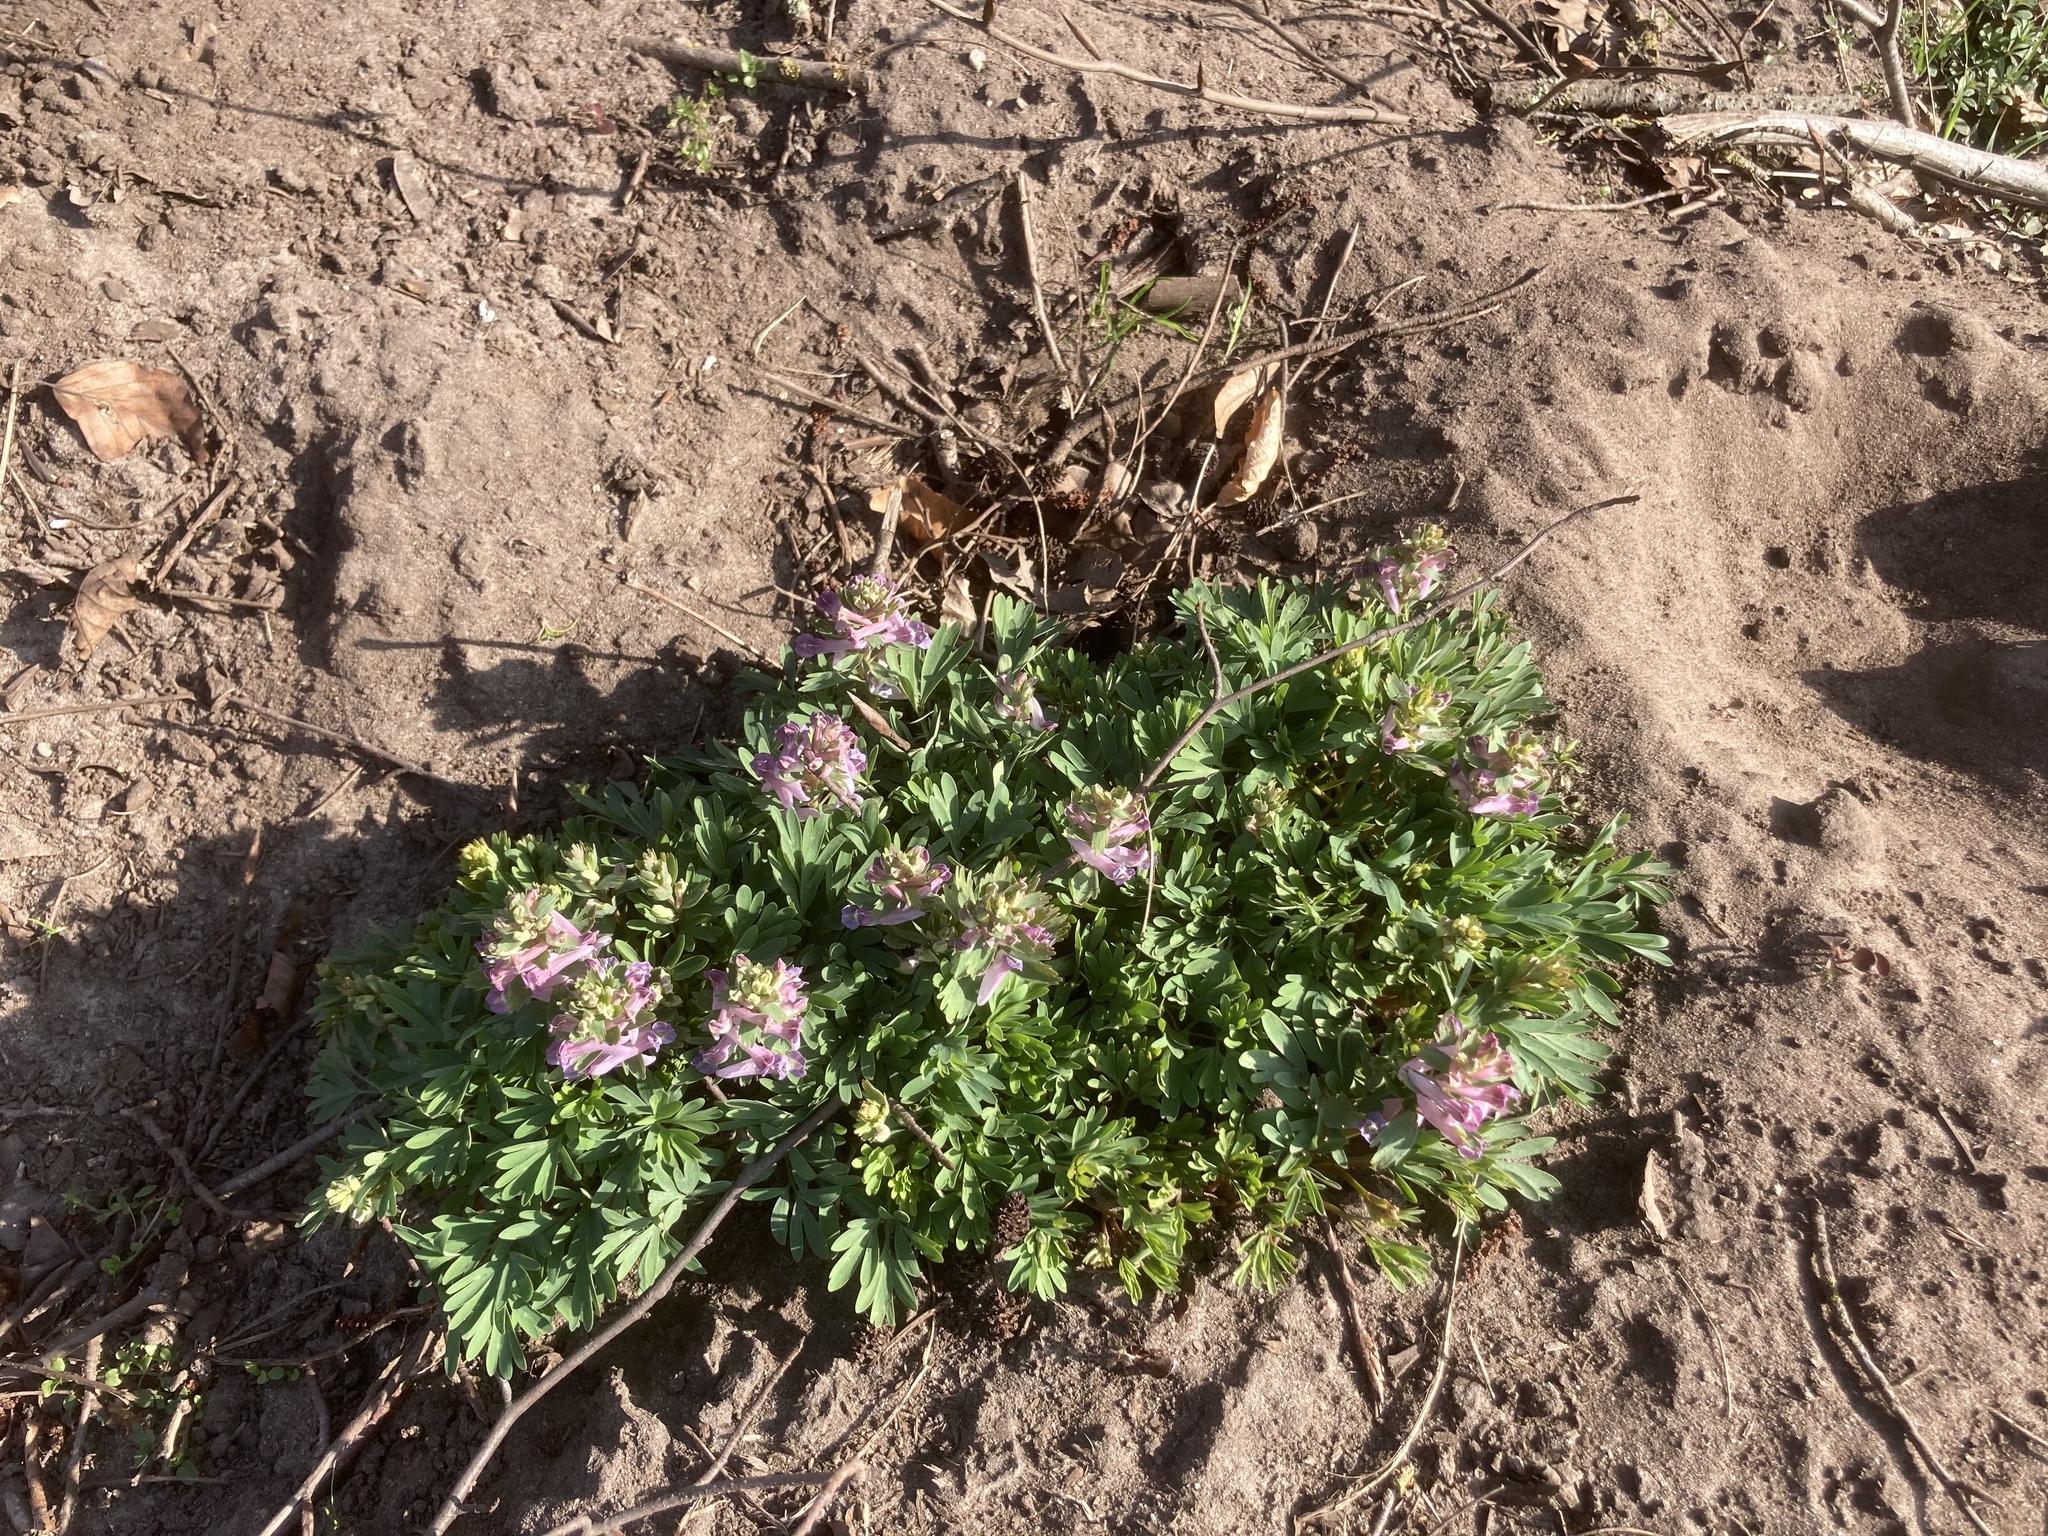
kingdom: Plantae
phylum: Tracheophyta
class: Magnoliopsida
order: Ranunculales
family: Papaveraceae
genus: Corydalis
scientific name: Corydalis solida
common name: Bird-in-a-bush
